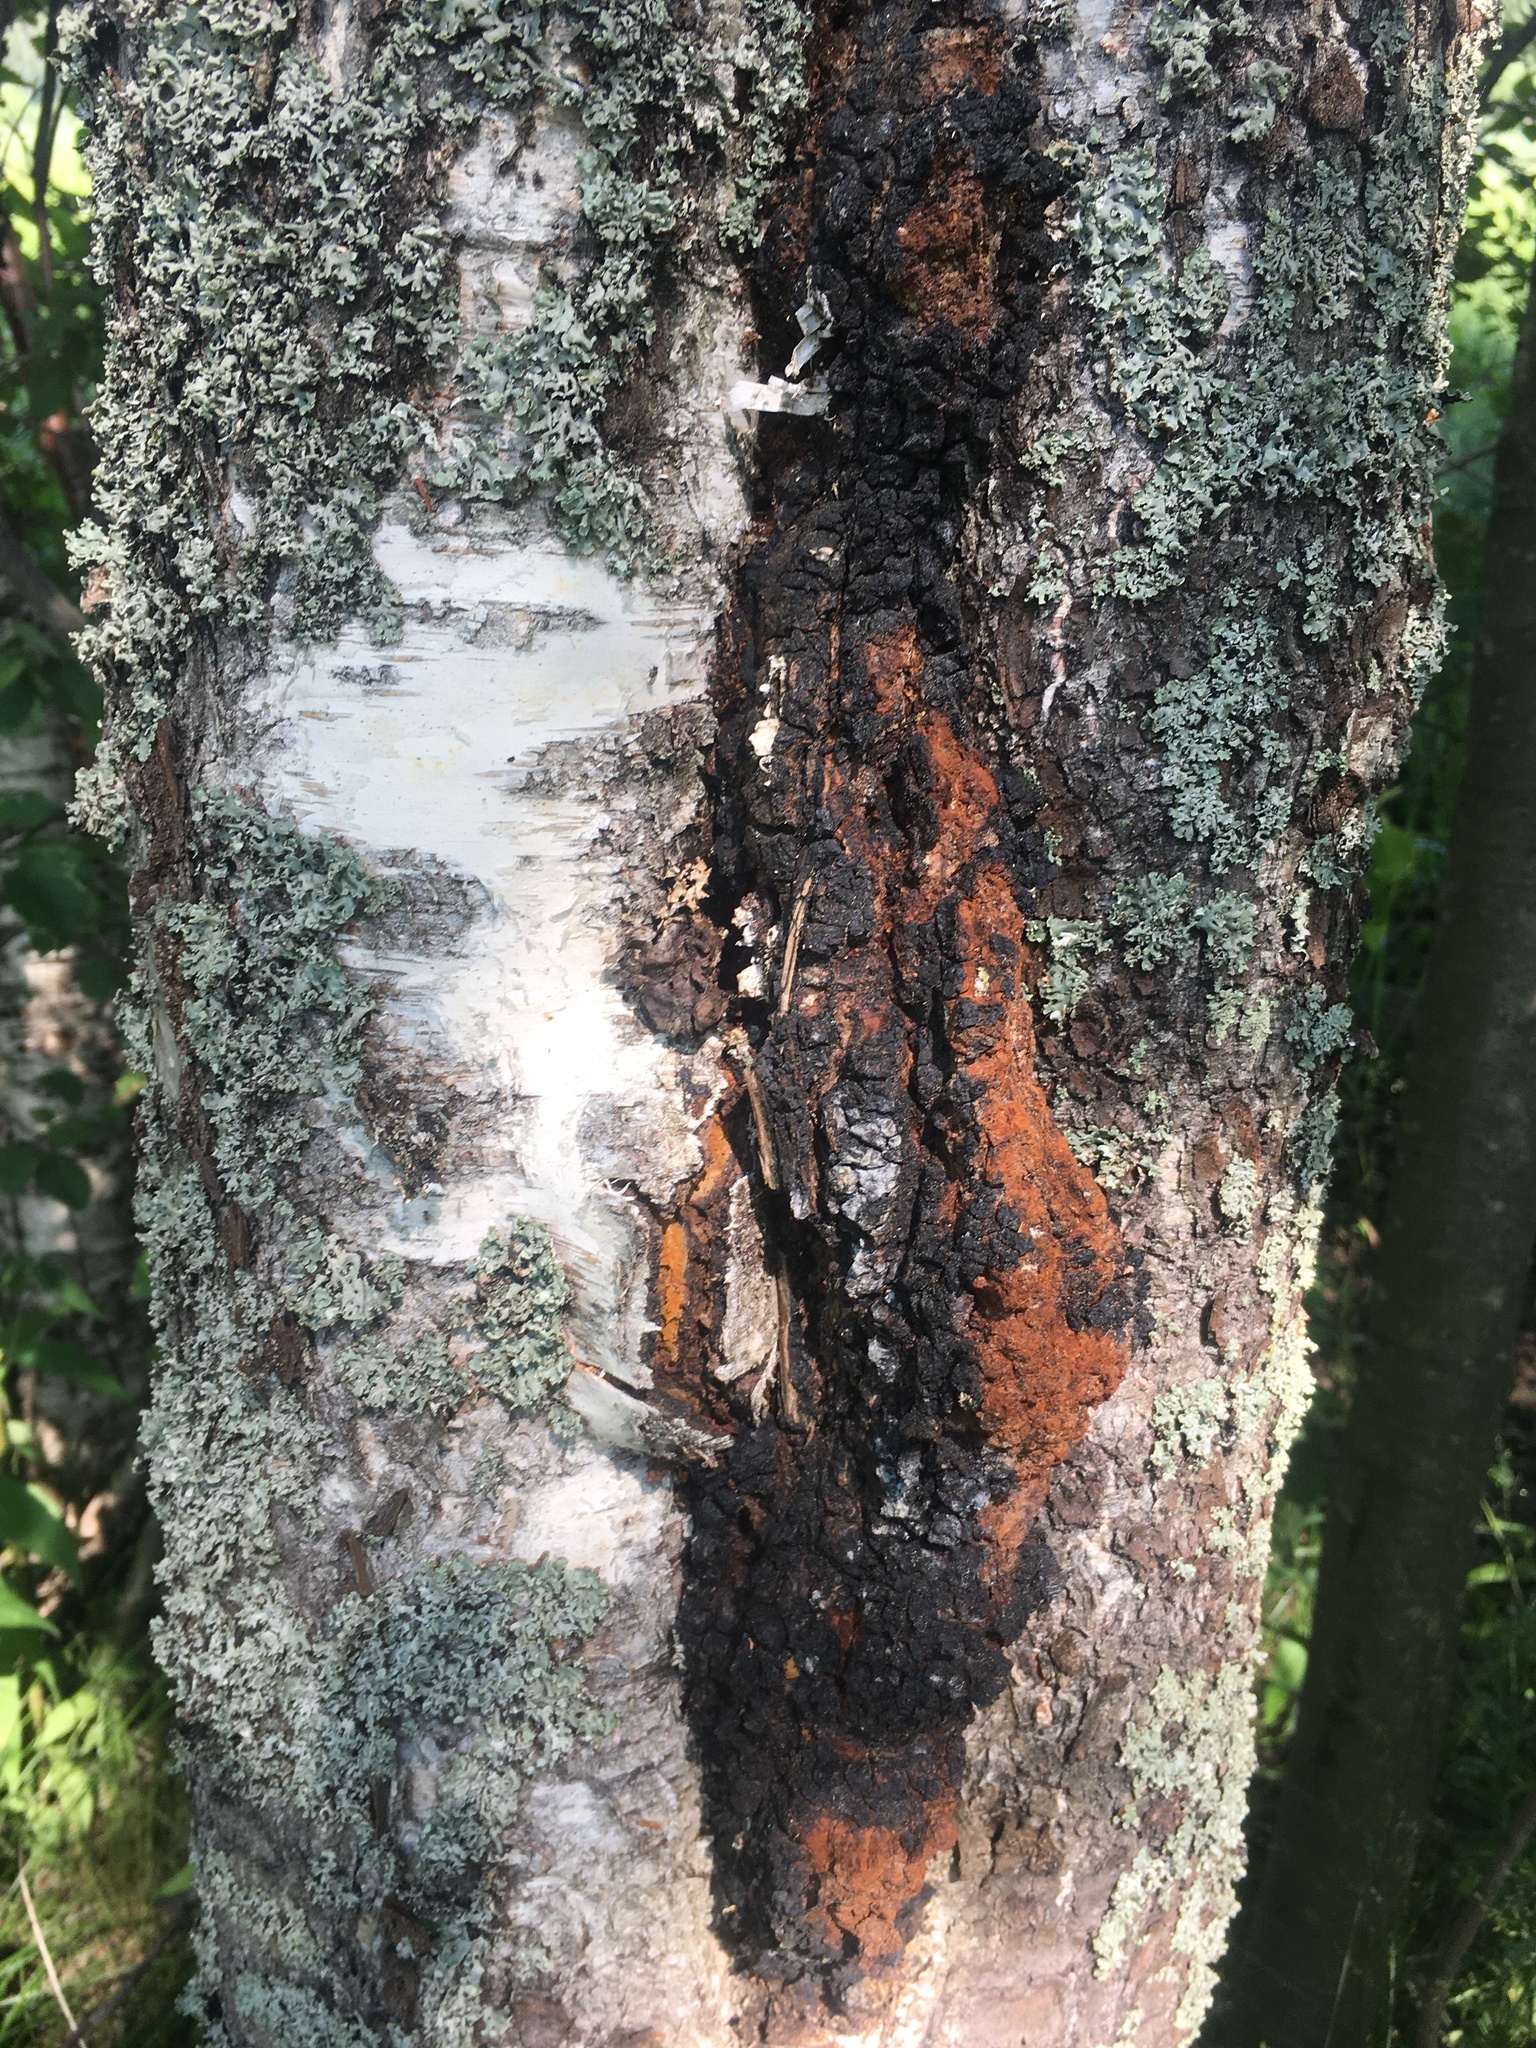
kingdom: Fungi
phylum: Basidiomycota
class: Agaricomycetes
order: Hymenochaetales
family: Hymenochaetaceae
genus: Inonotus
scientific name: Inonotus obliquus
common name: Chaga
